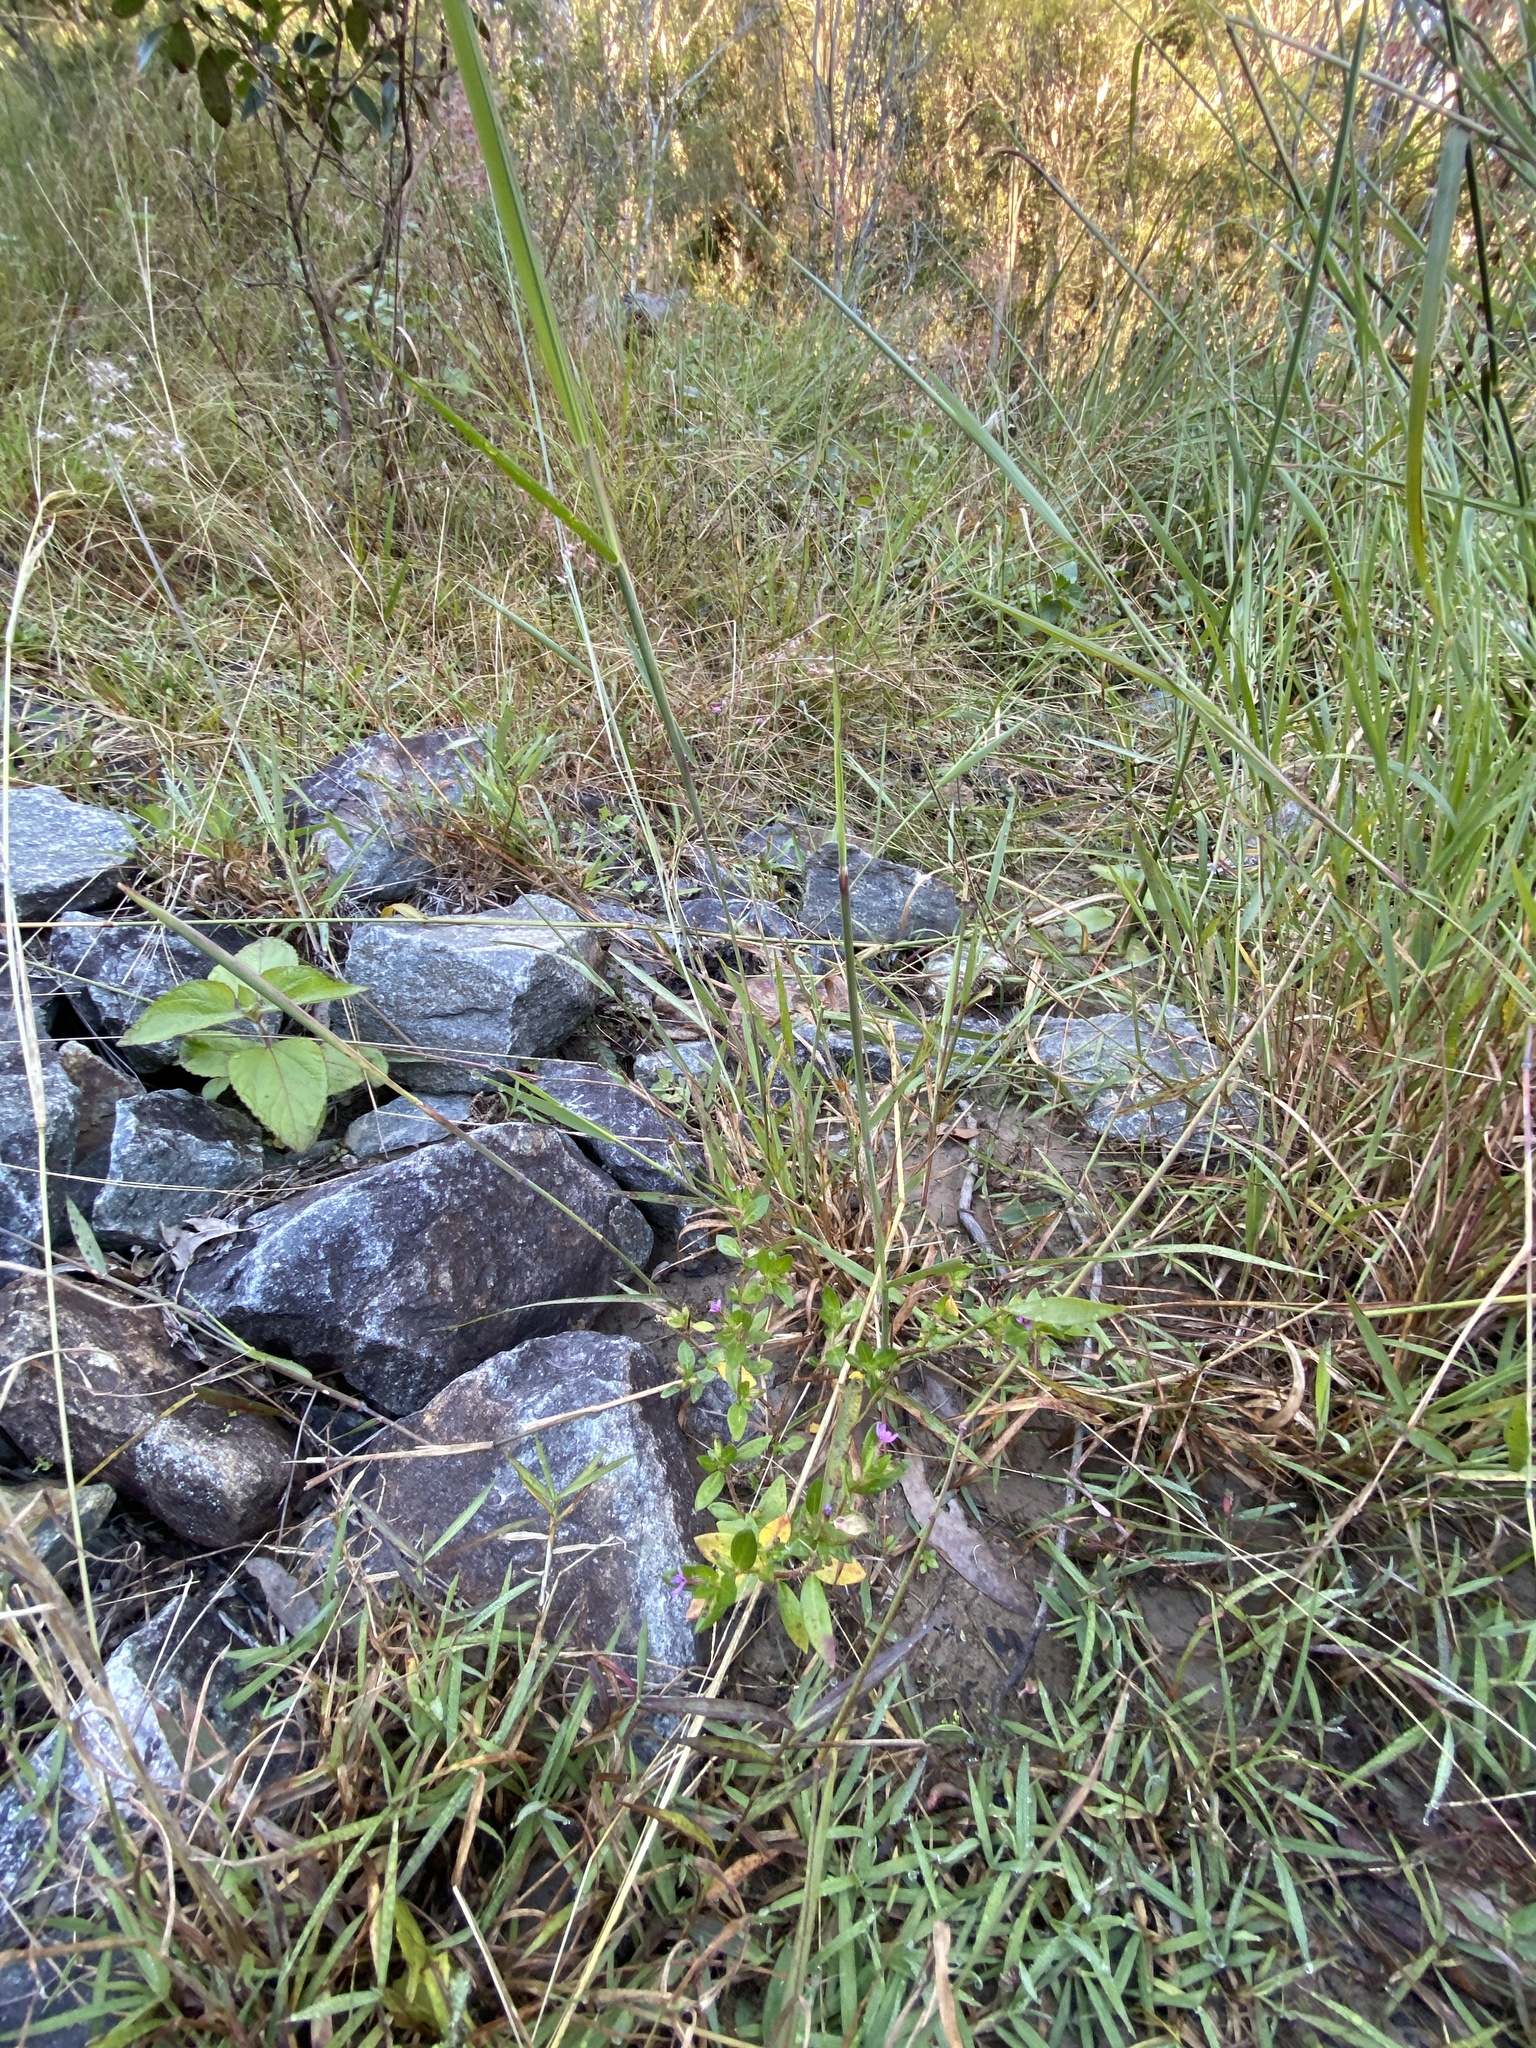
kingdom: Plantae
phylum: Tracheophyta
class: Magnoliopsida
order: Myrtales
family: Lythraceae
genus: Cuphea
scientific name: Cuphea carthagenensis
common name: Colombian waxweed
